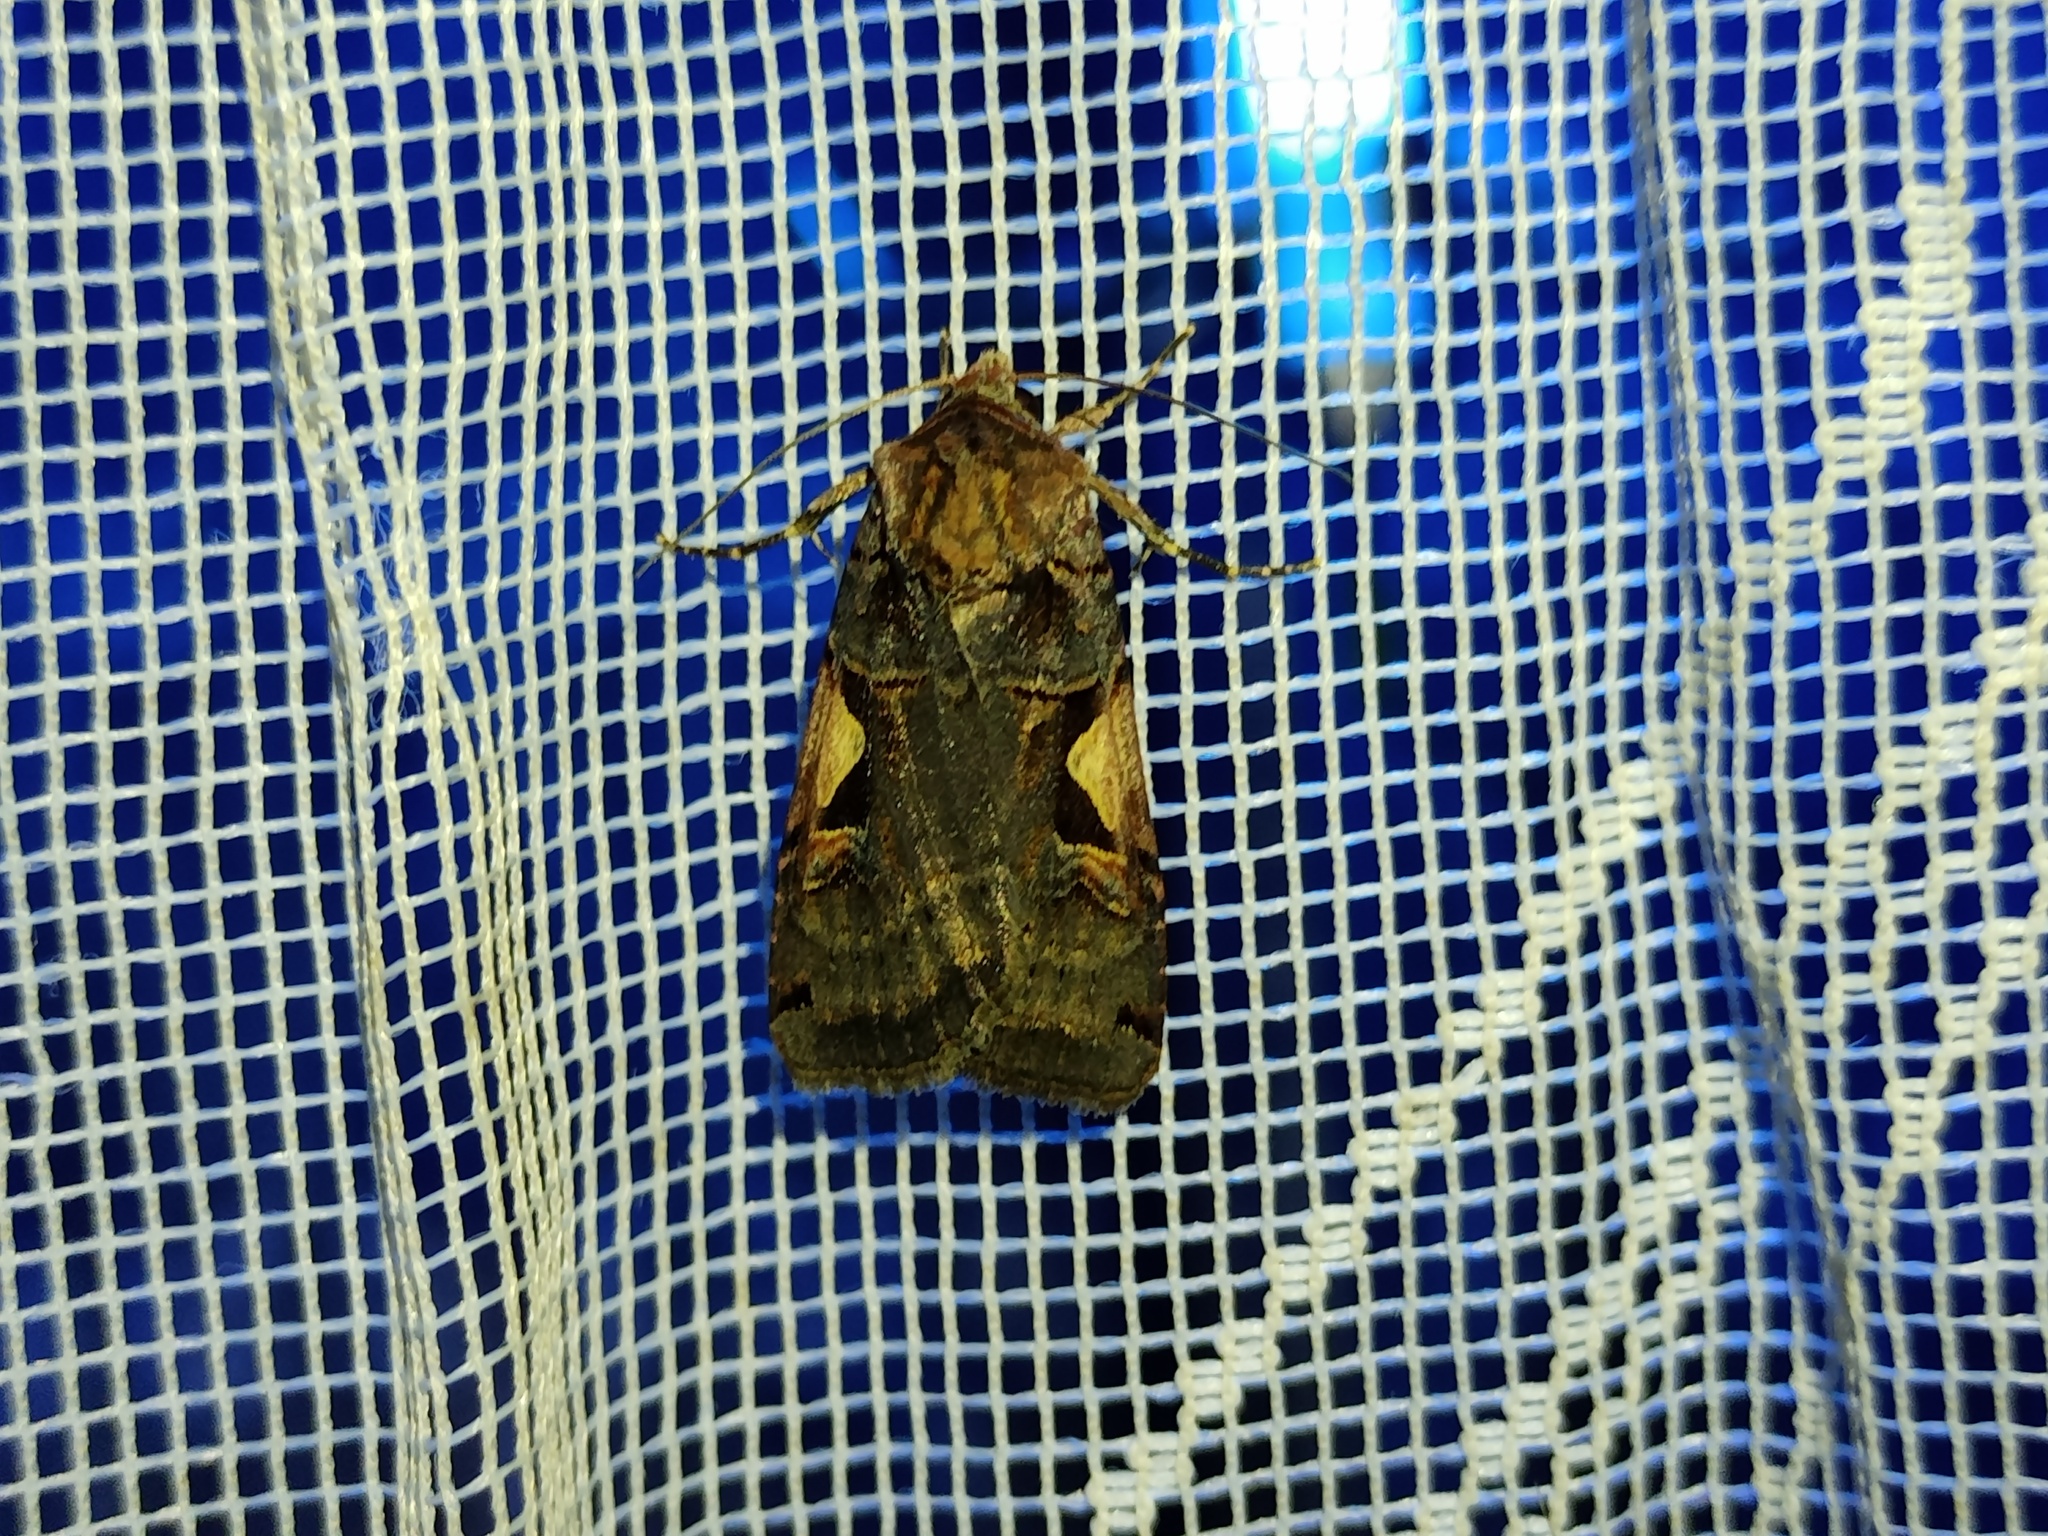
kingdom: Animalia
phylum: Arthropoda
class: Insecta
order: Lepidoptera
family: Noctuidae
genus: Xestia
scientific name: Xestia c-nigrum
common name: Setaceous hebrew character
